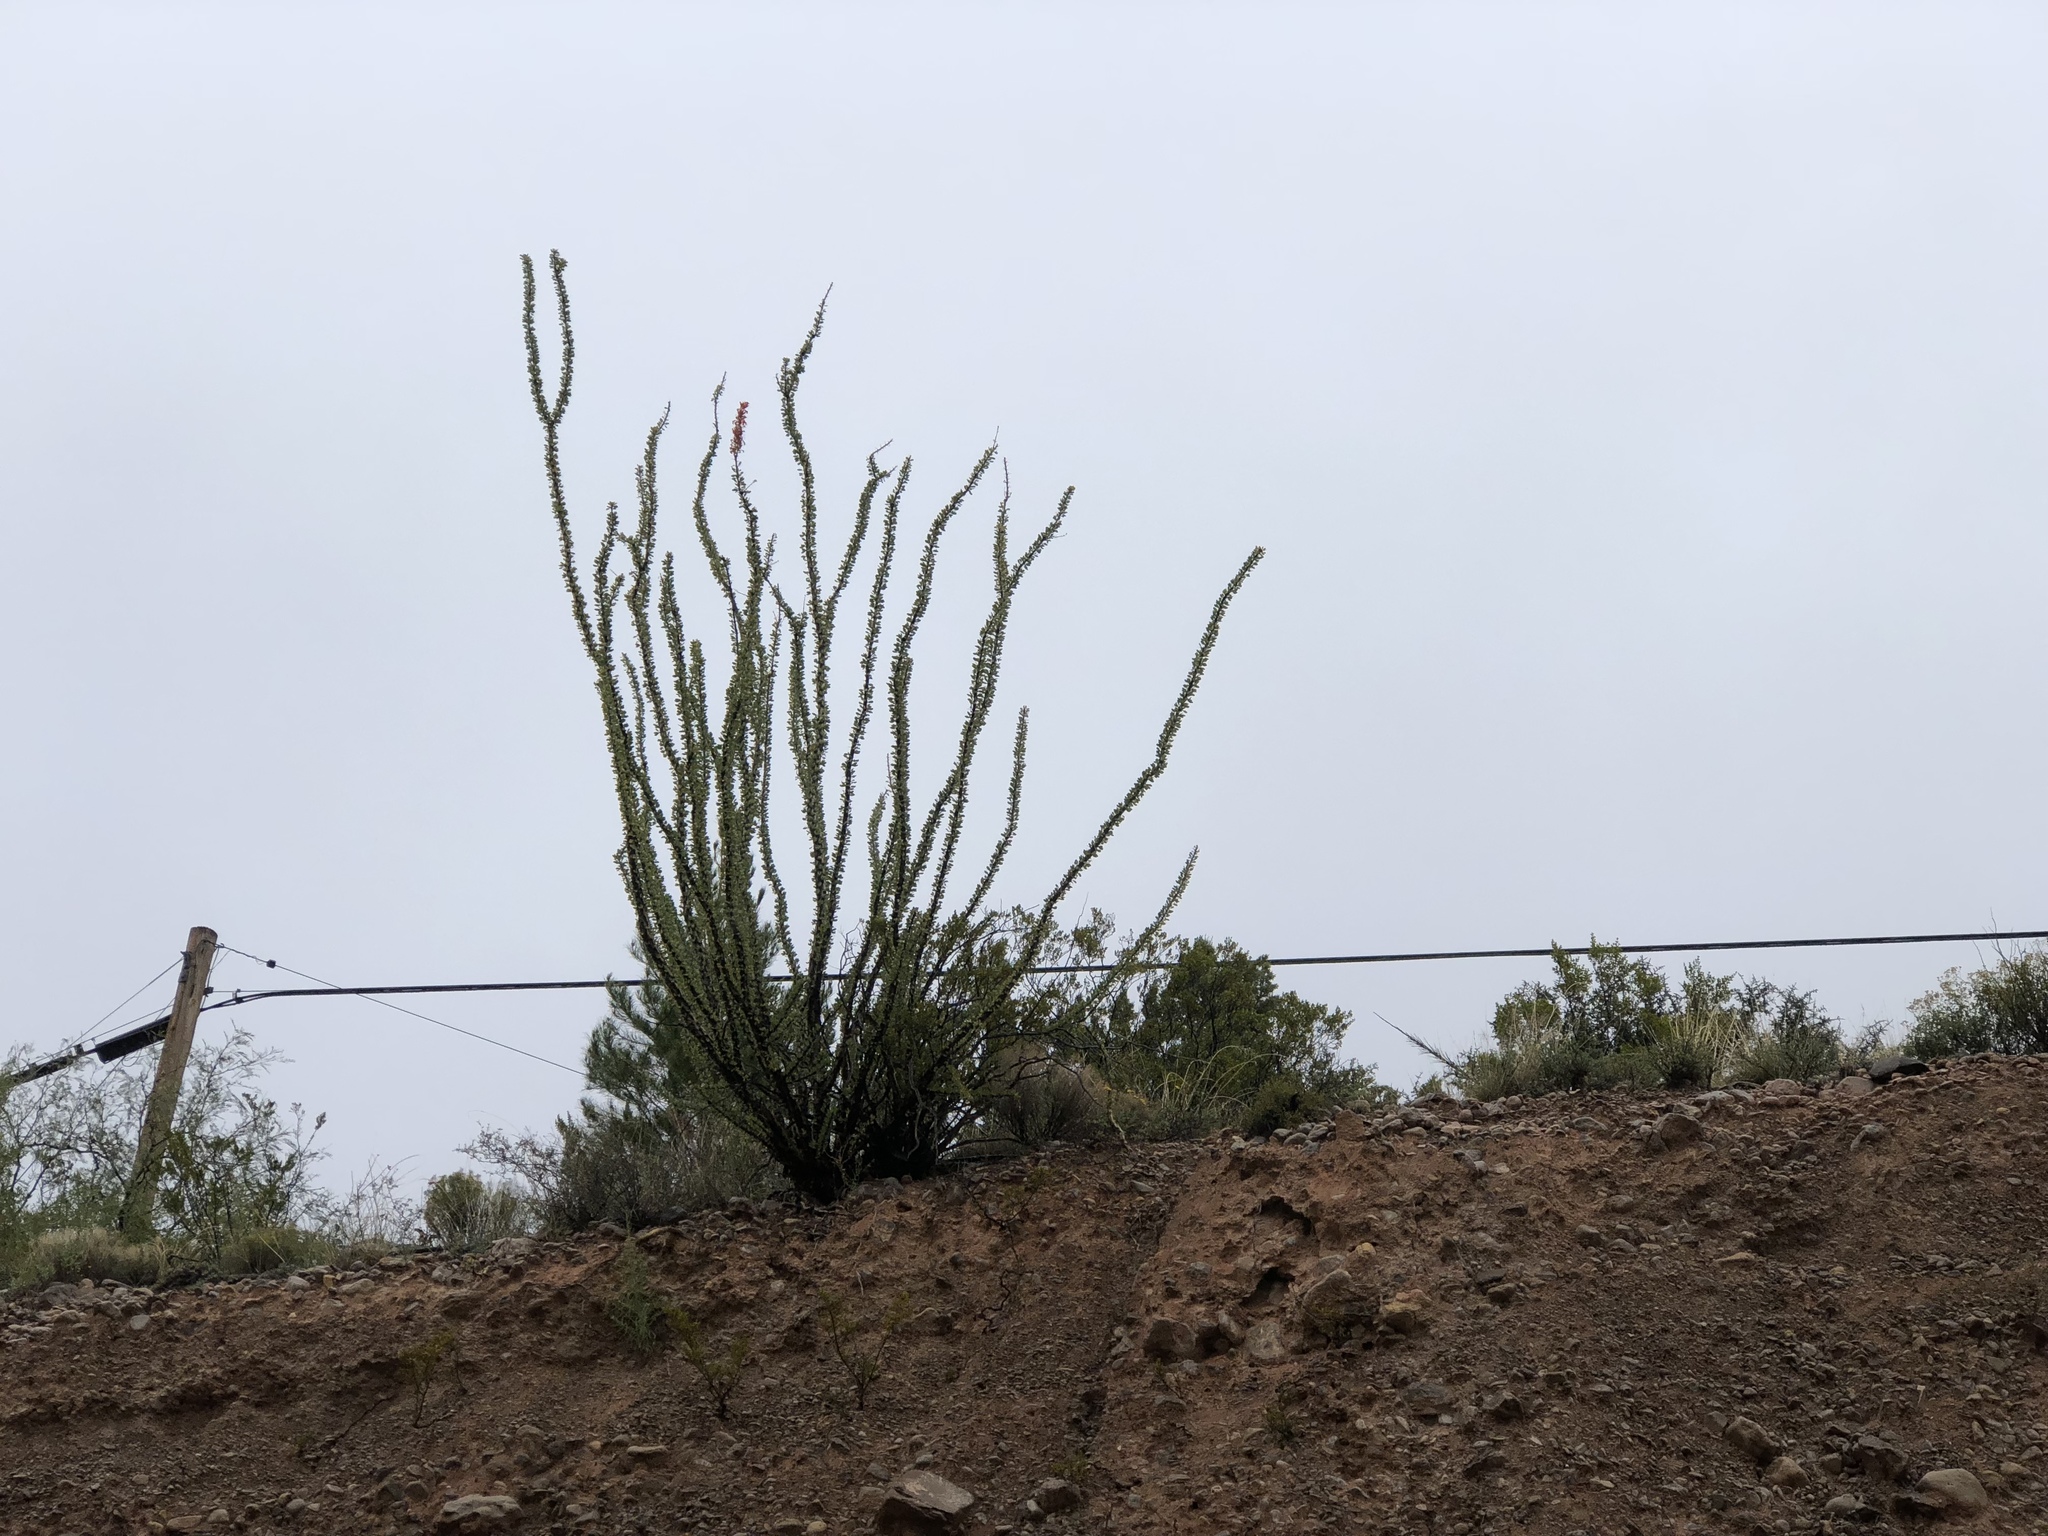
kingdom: Plantae
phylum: Tracheophyta
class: Magnoliopsida
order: Ericales
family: Fouquieriaceae
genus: Fouquieria
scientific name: Fouquieria splendens
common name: Vine-cactus
